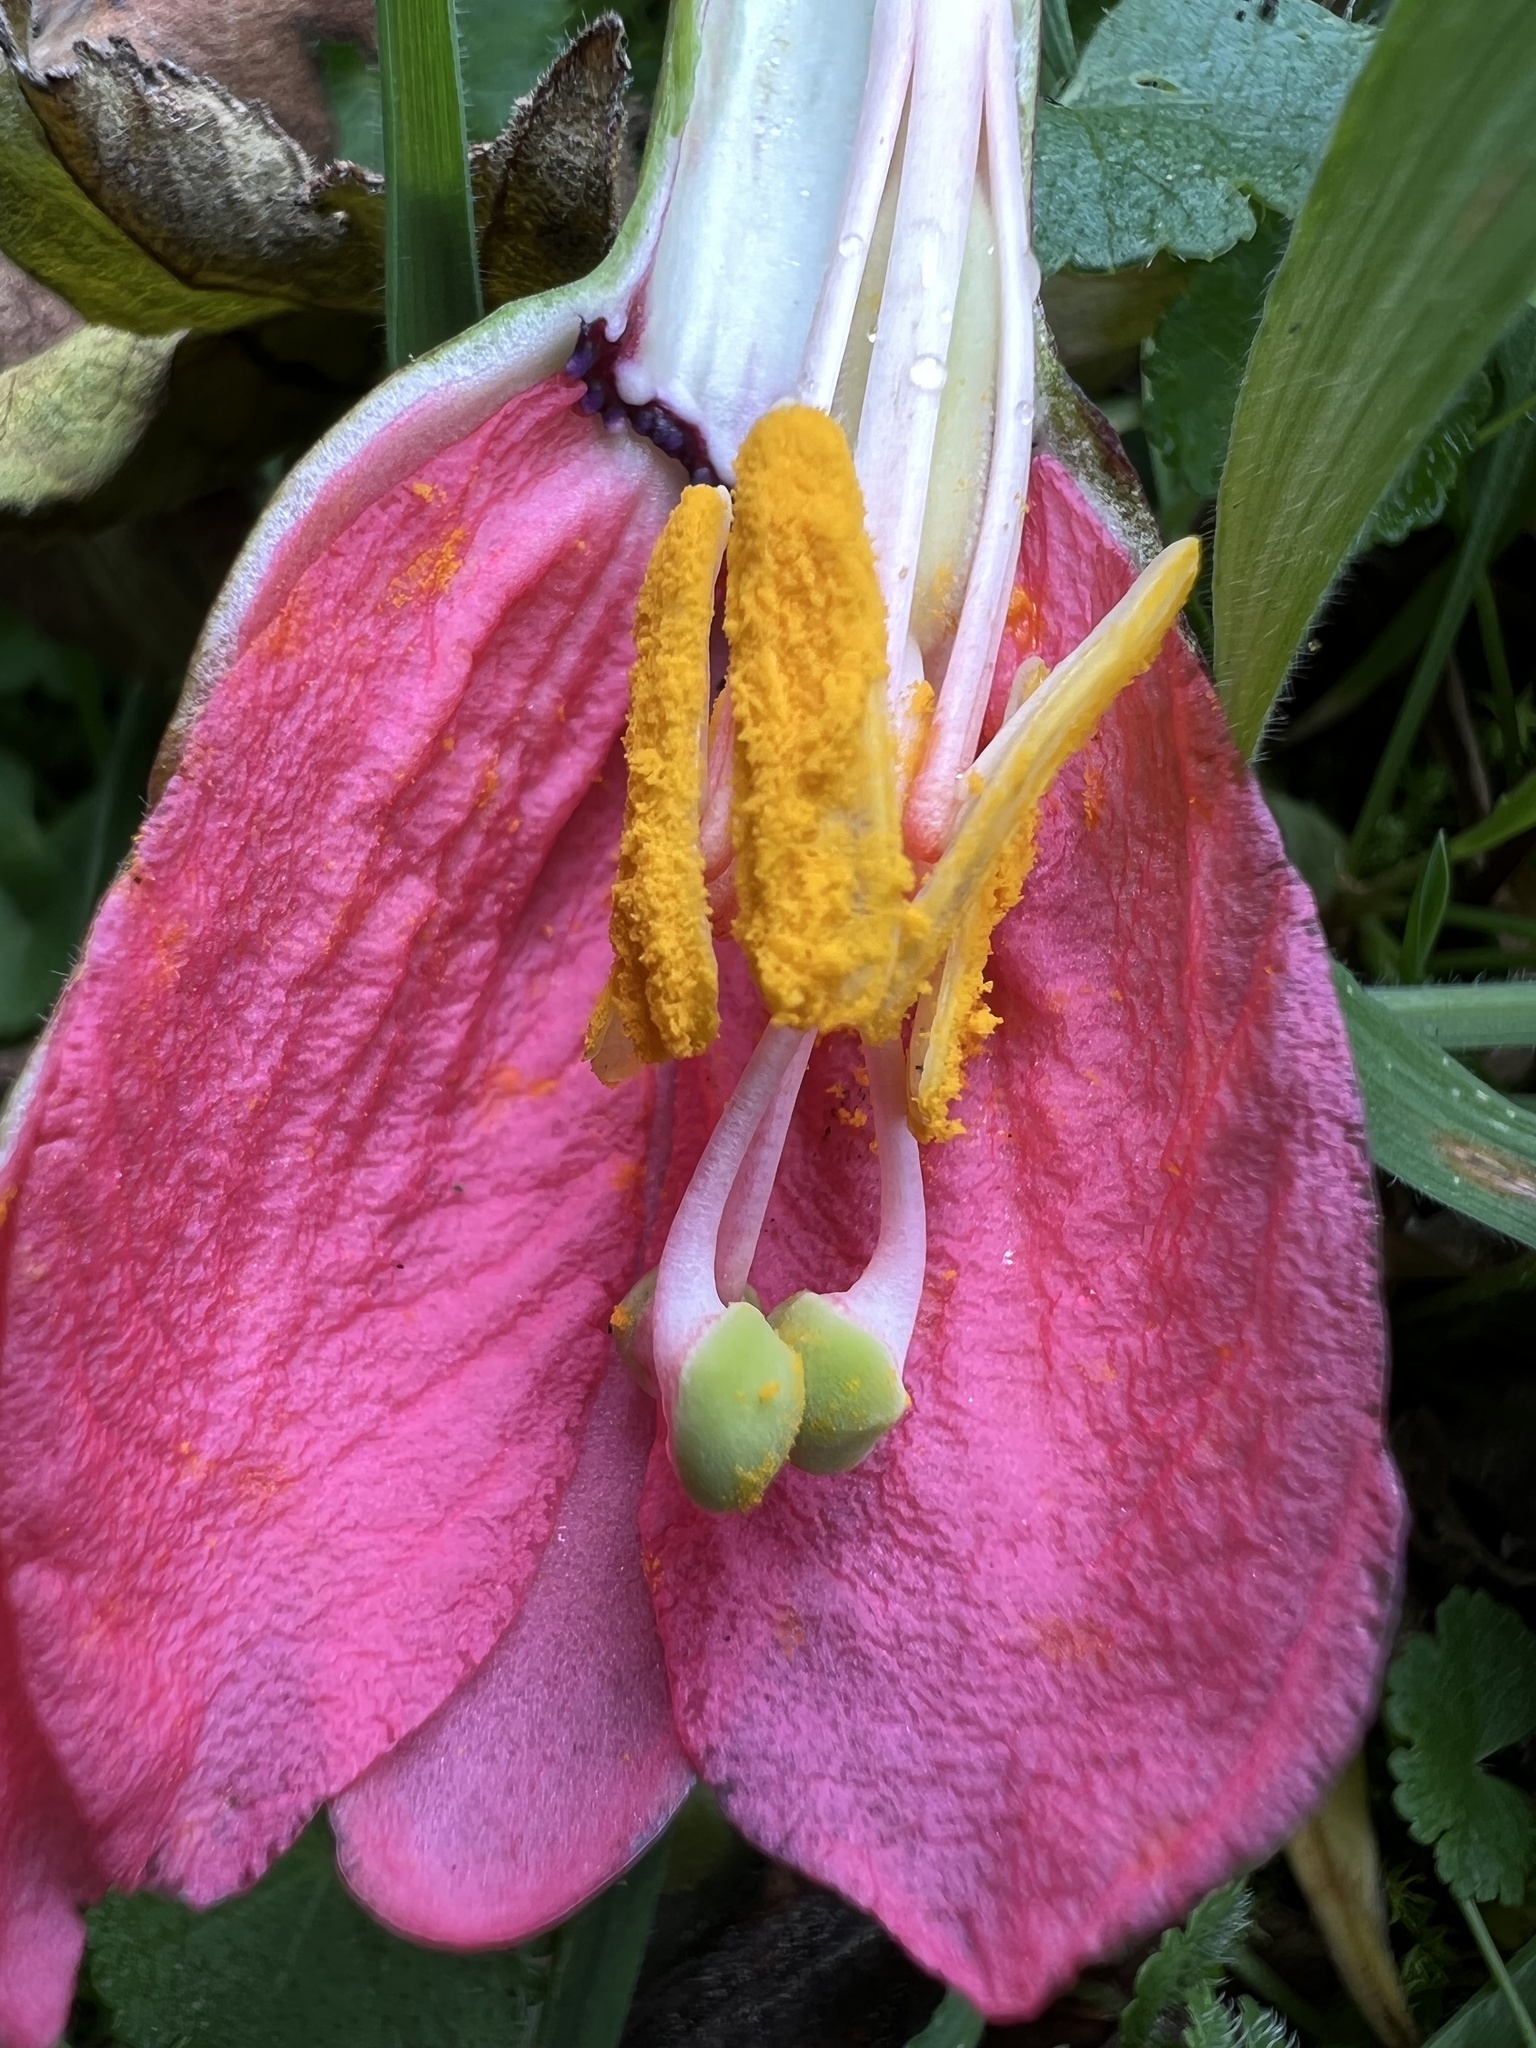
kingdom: Plantae
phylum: Tracheophyta
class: Magnoliopsida
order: Malpighiales
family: Passifloraceae
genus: Passiflora
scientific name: Passiflora mixta
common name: Passion flower
